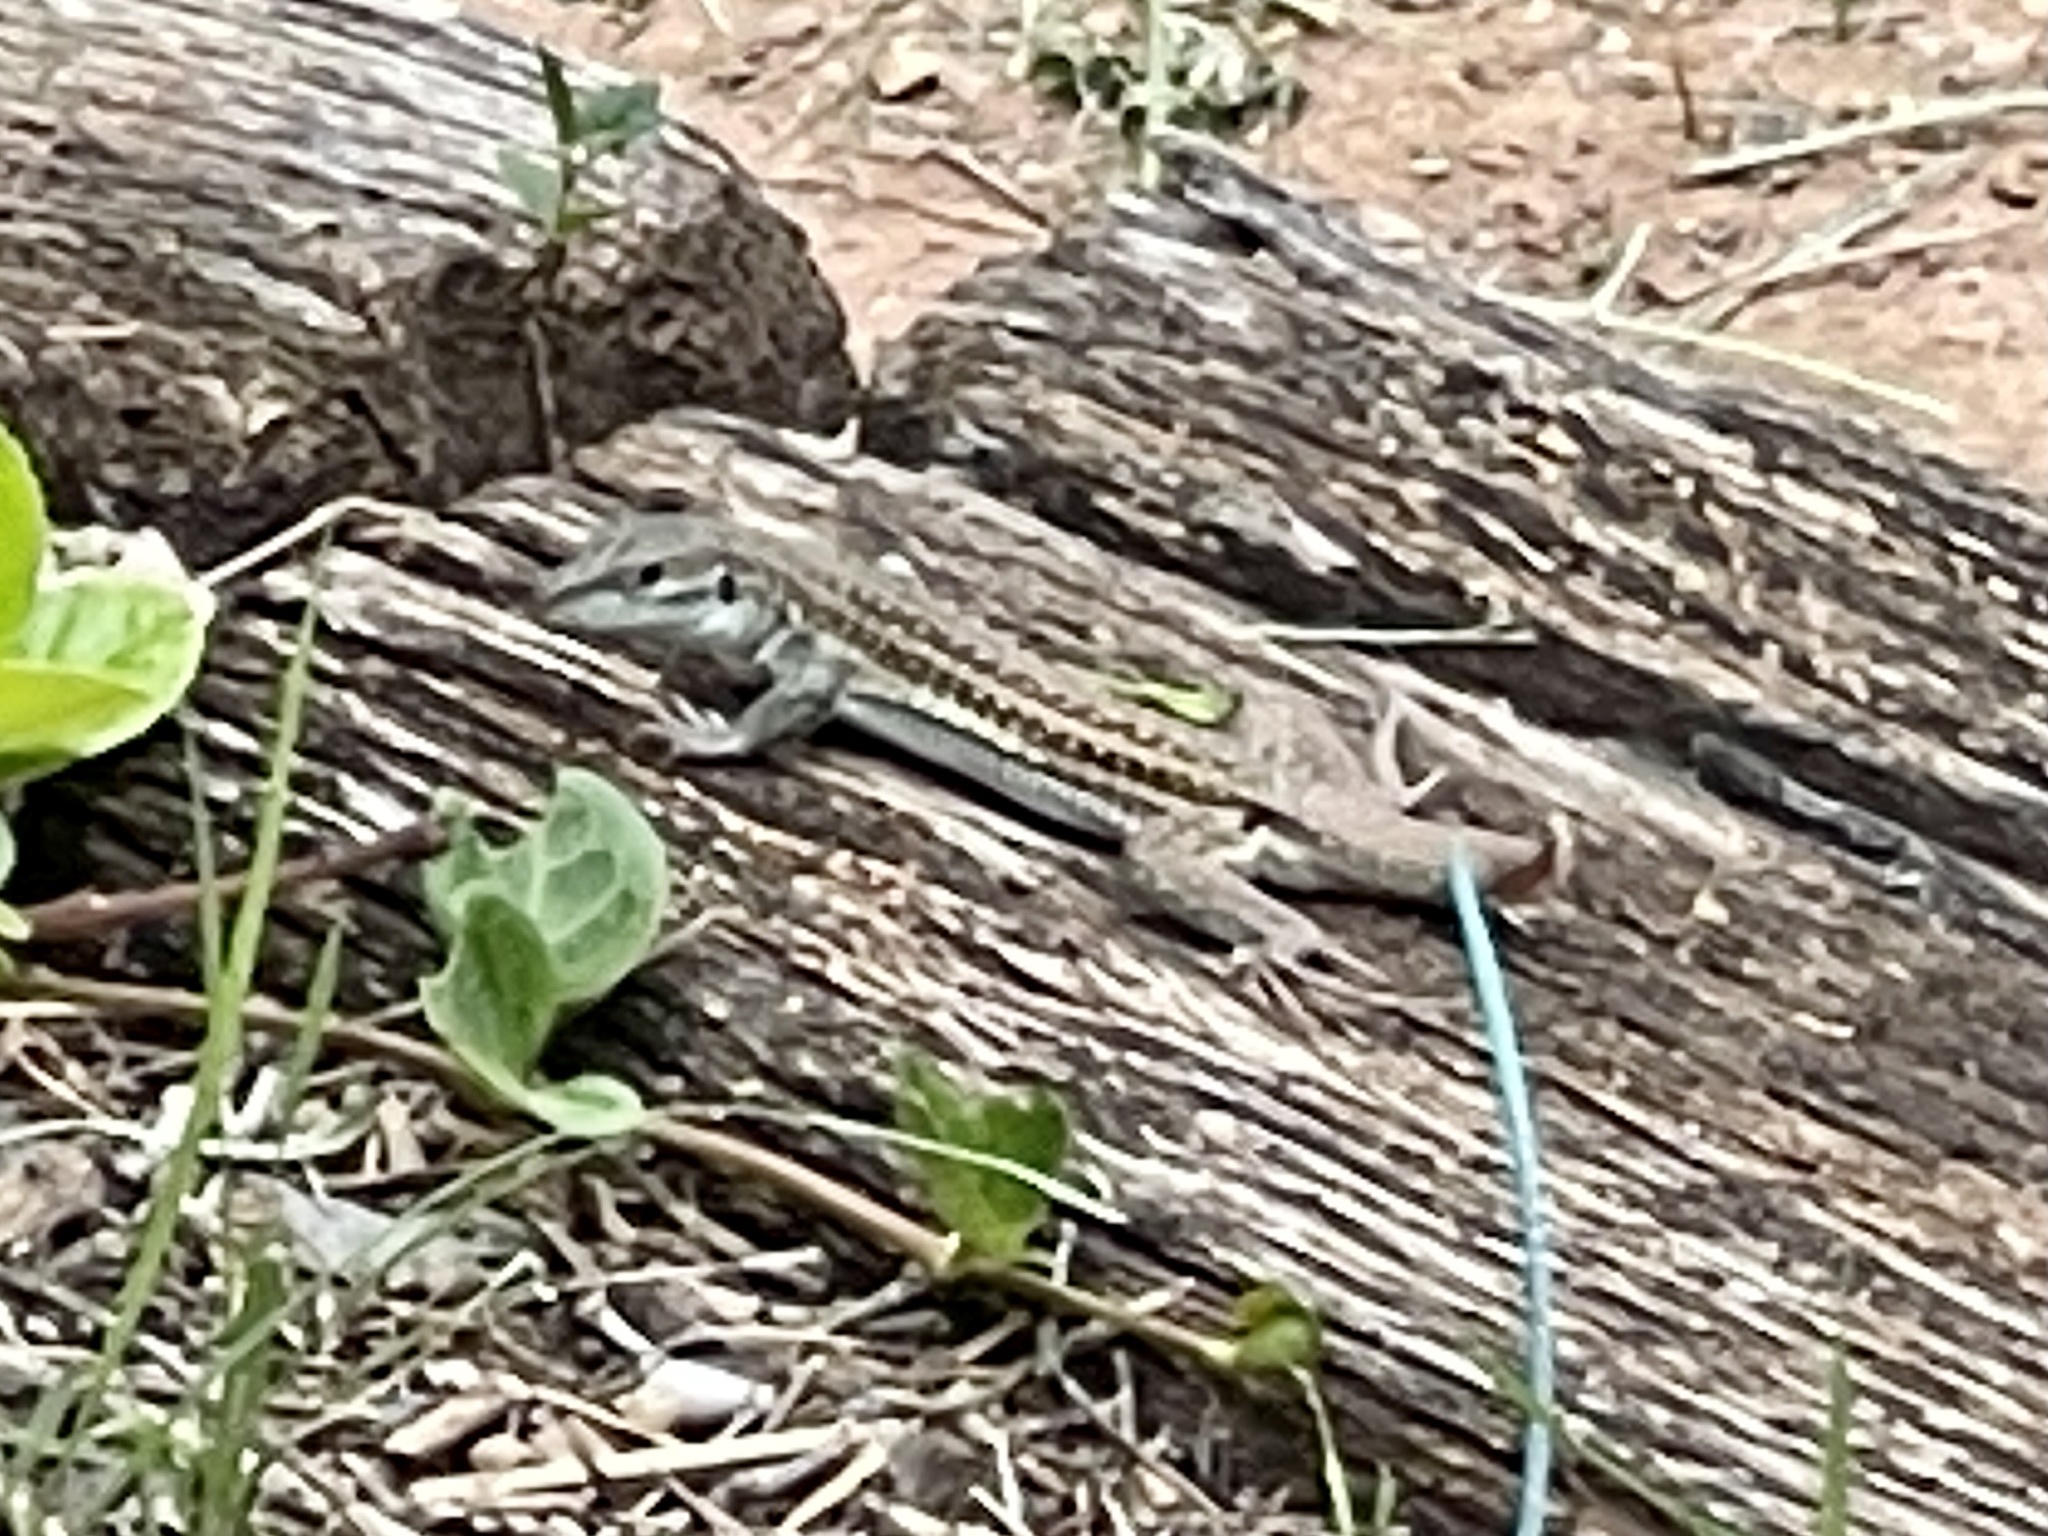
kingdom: Animalia
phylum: Chordata
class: Squamata
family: Teiidae
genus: Aspidoscelis
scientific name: Aspidoscelis exsanguis
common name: Chihuahuan spotted whiptail
